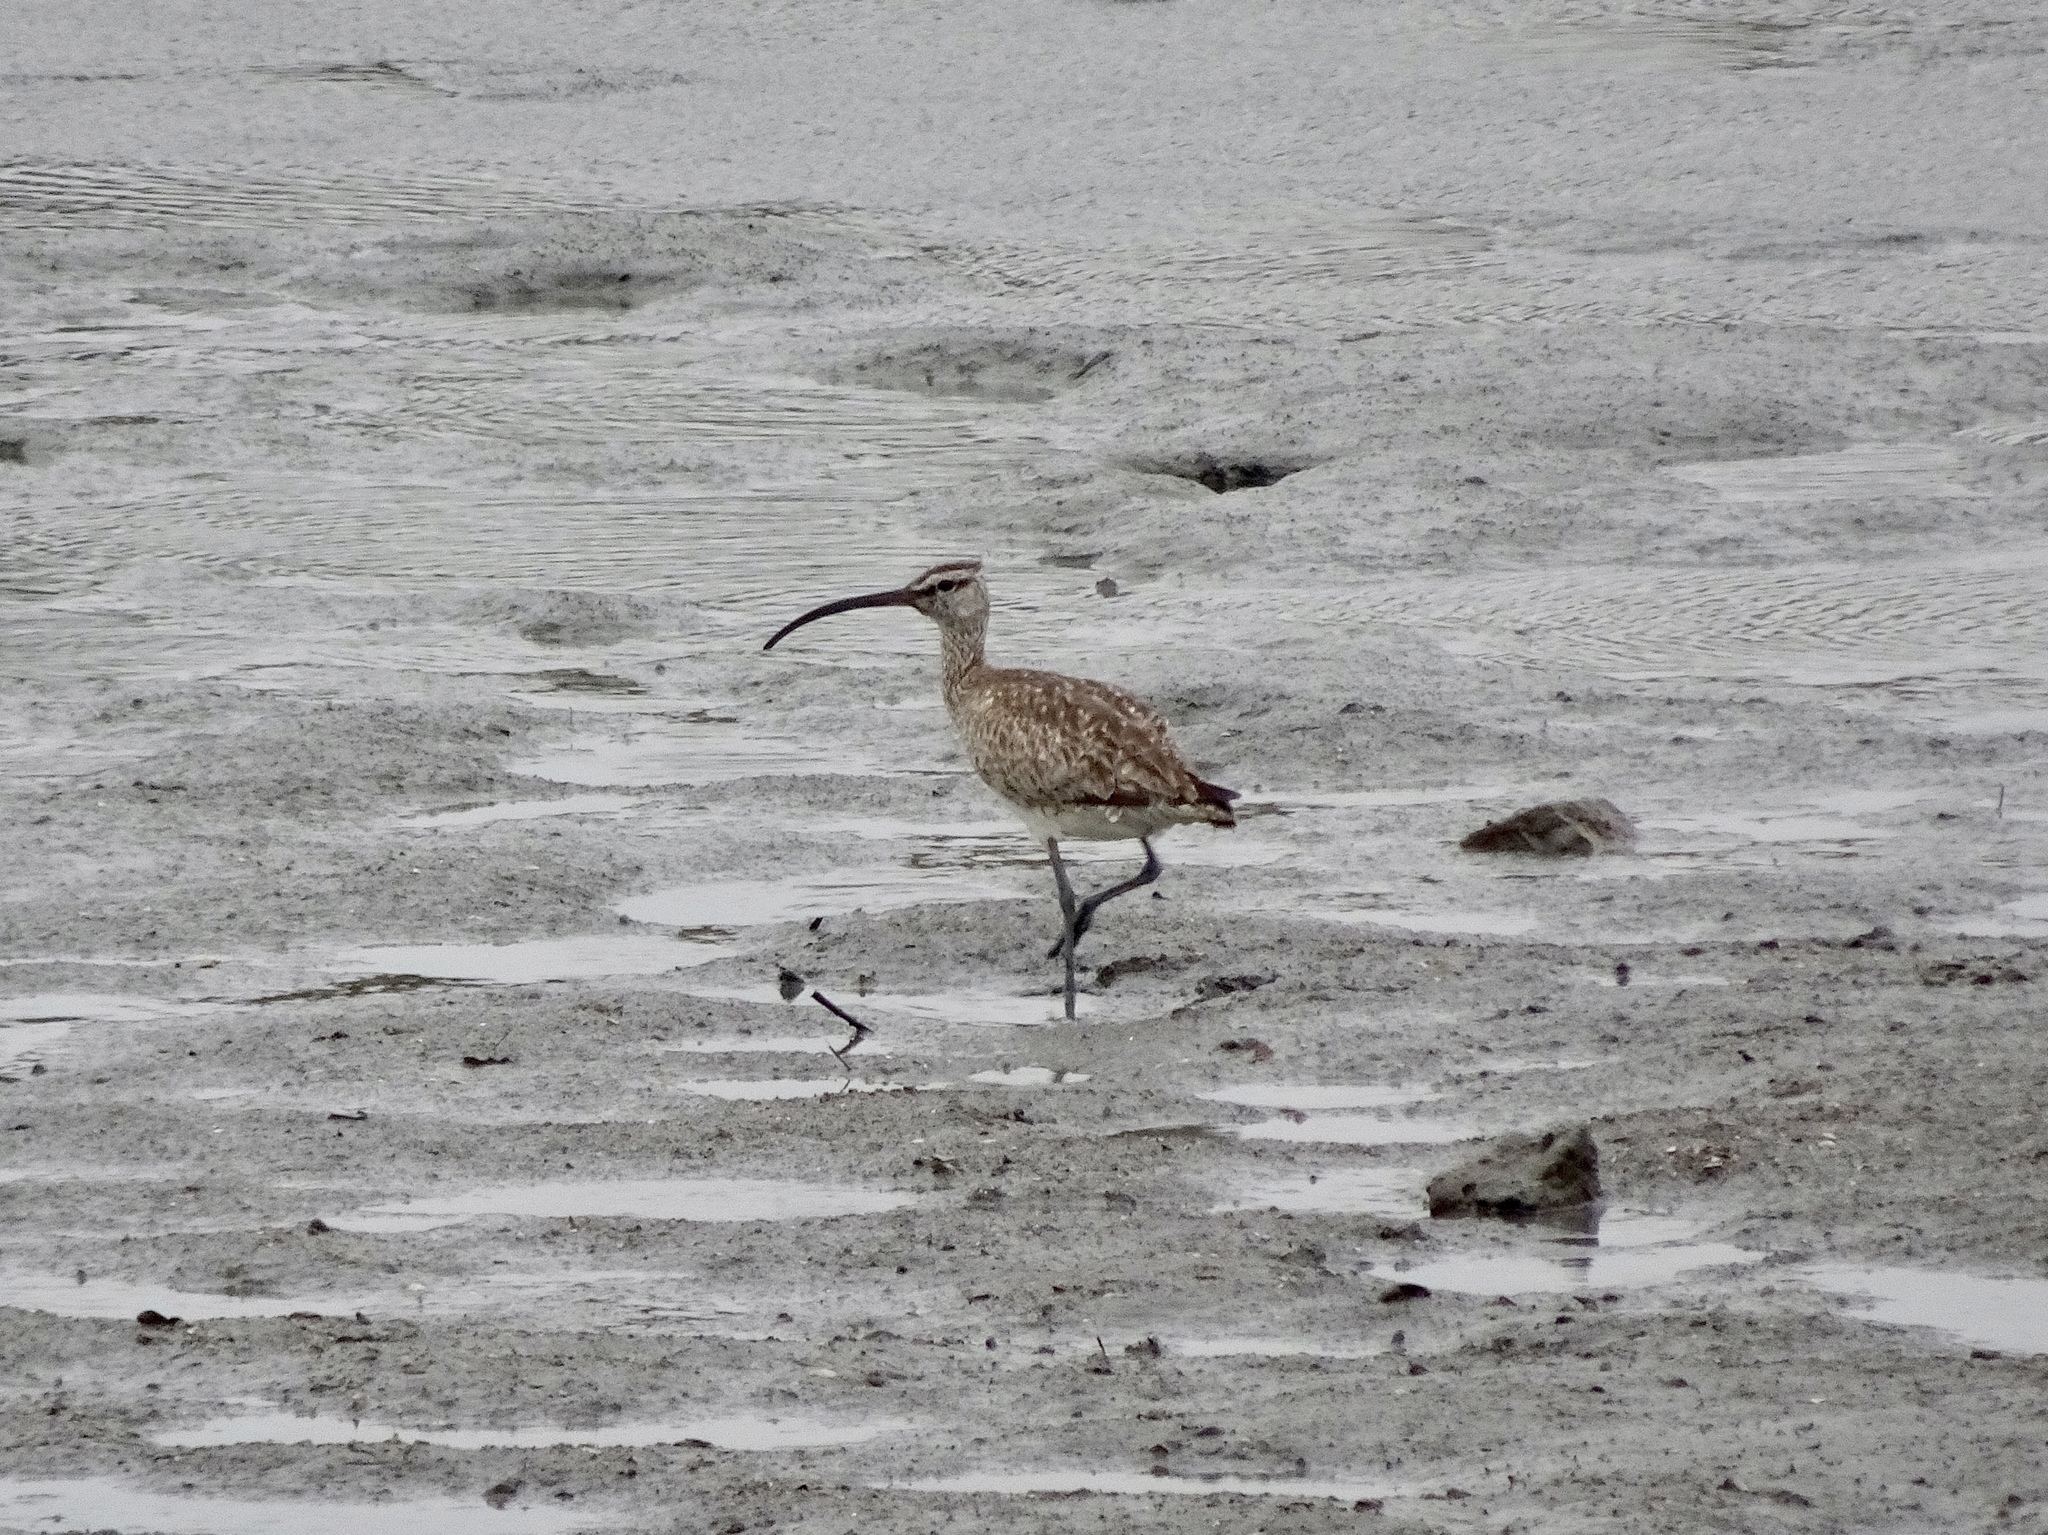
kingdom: Animalia
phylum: Chordata
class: Aves
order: Charadriiformes
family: Scolopacidae
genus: Numenius
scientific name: Numenius phaeopus
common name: Whimbrel
